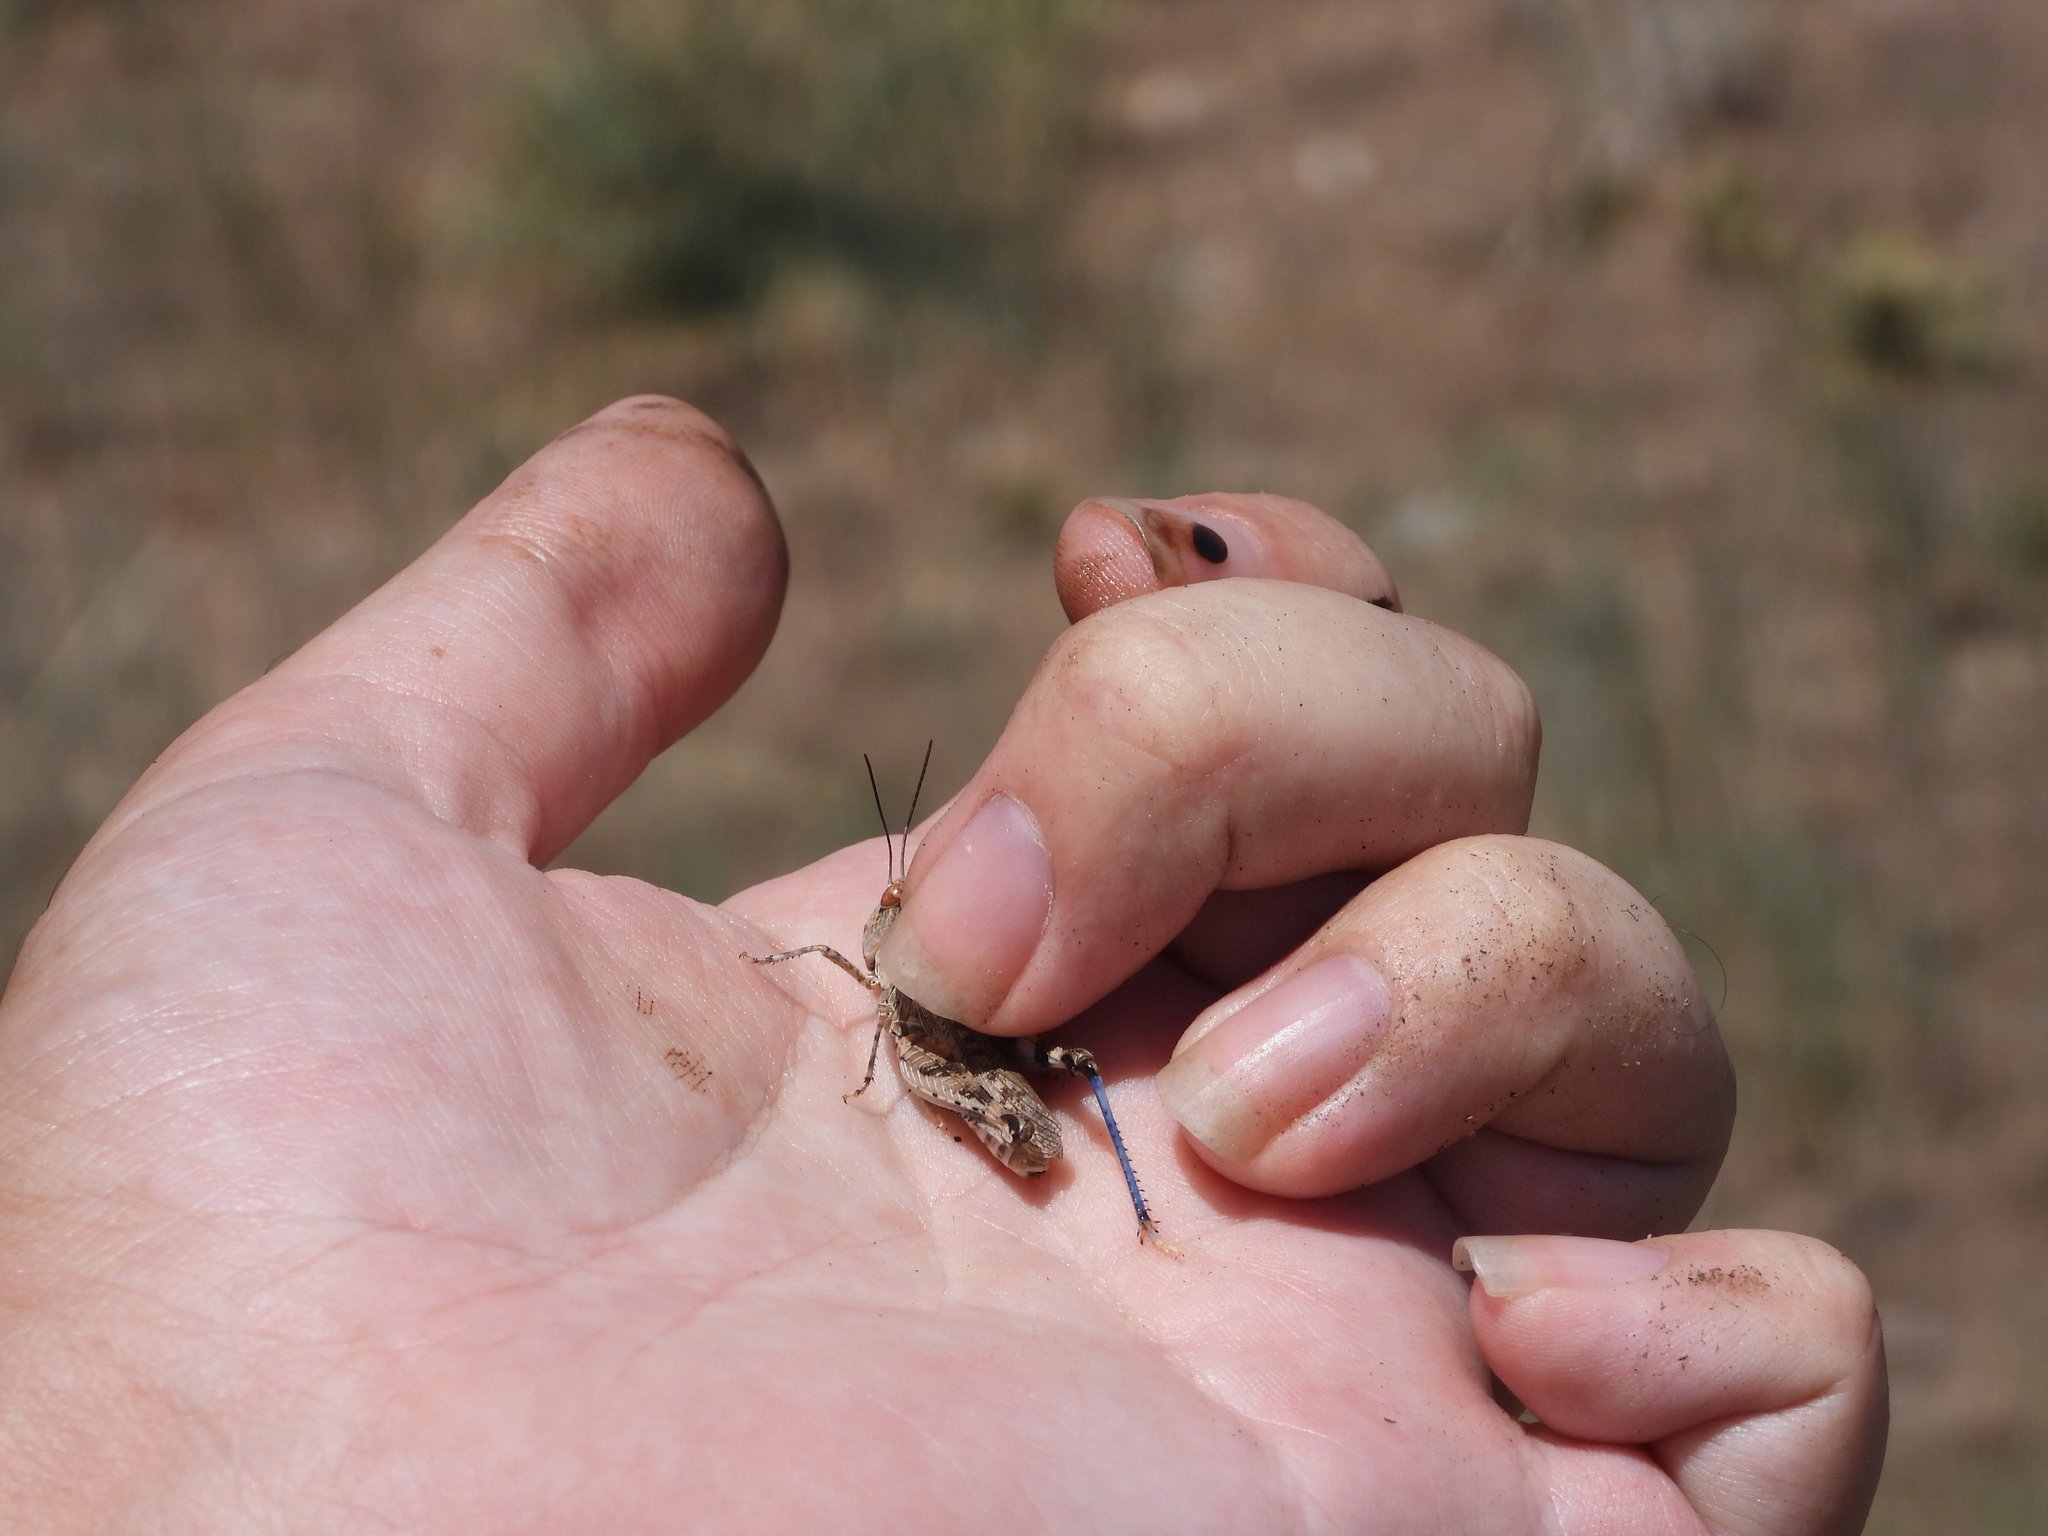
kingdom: Animalia
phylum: Arthropoda
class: Insecta
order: Orthoptera
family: Acrididae
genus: Aulocara
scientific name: Aulocara elliotti
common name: Bigheaded grasshopper
